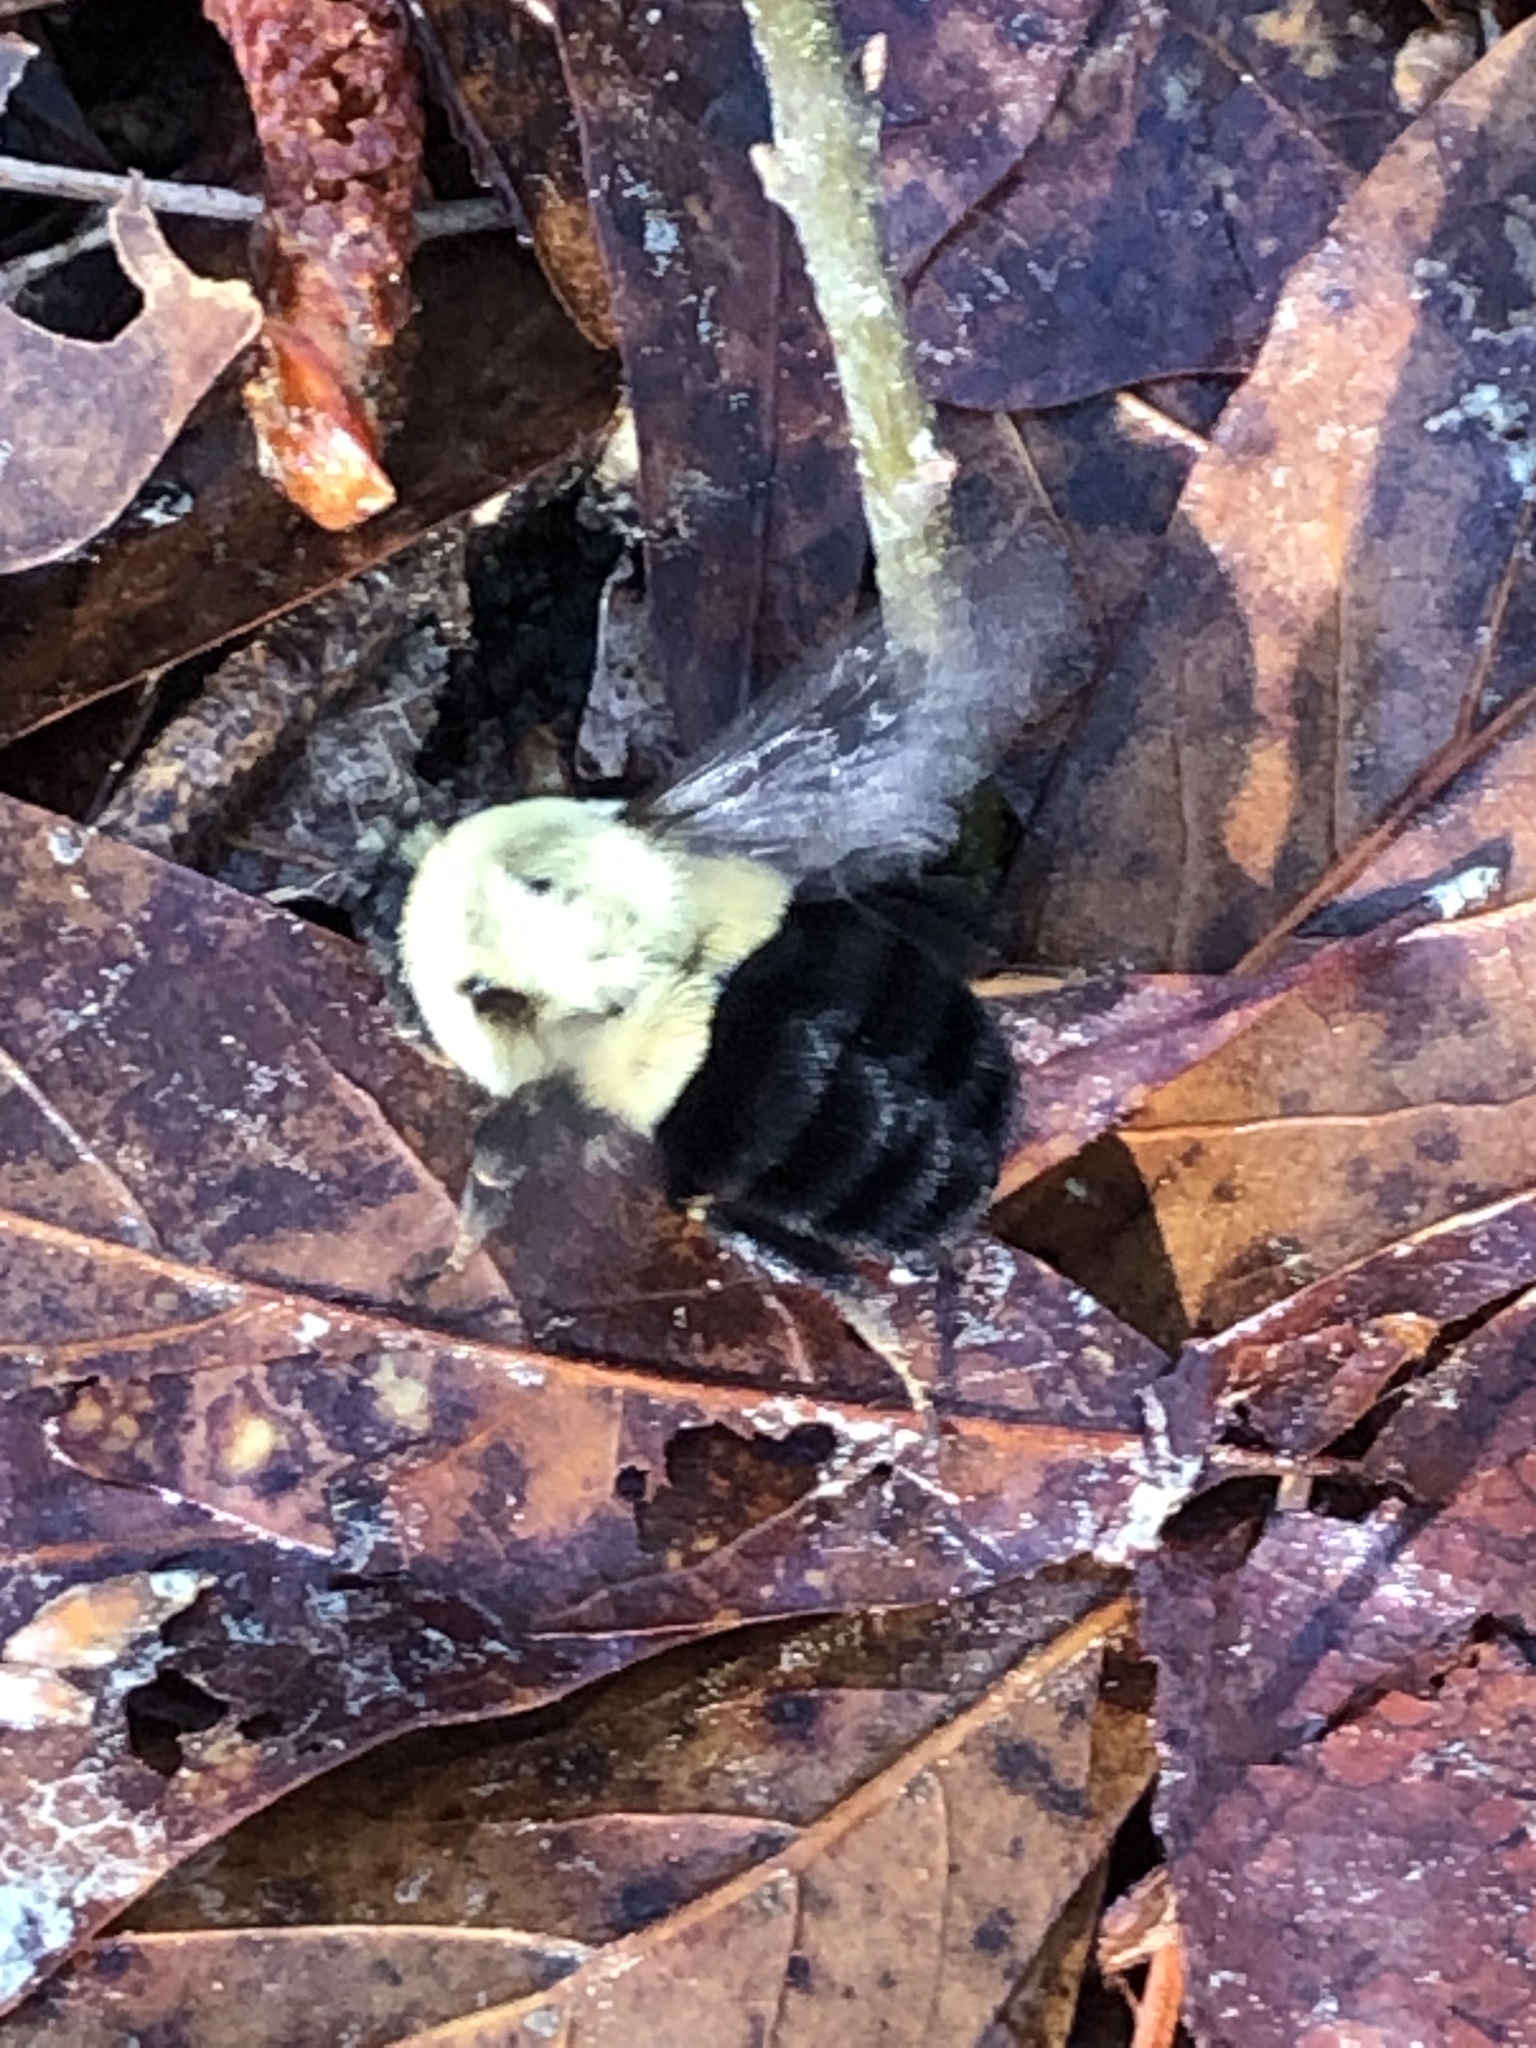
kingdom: Animalia
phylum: Arthropoda
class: Insecta
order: Hymenoptera
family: Apidae
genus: Bombus
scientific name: Bombus impatiens
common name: Common eastern bumble bee
